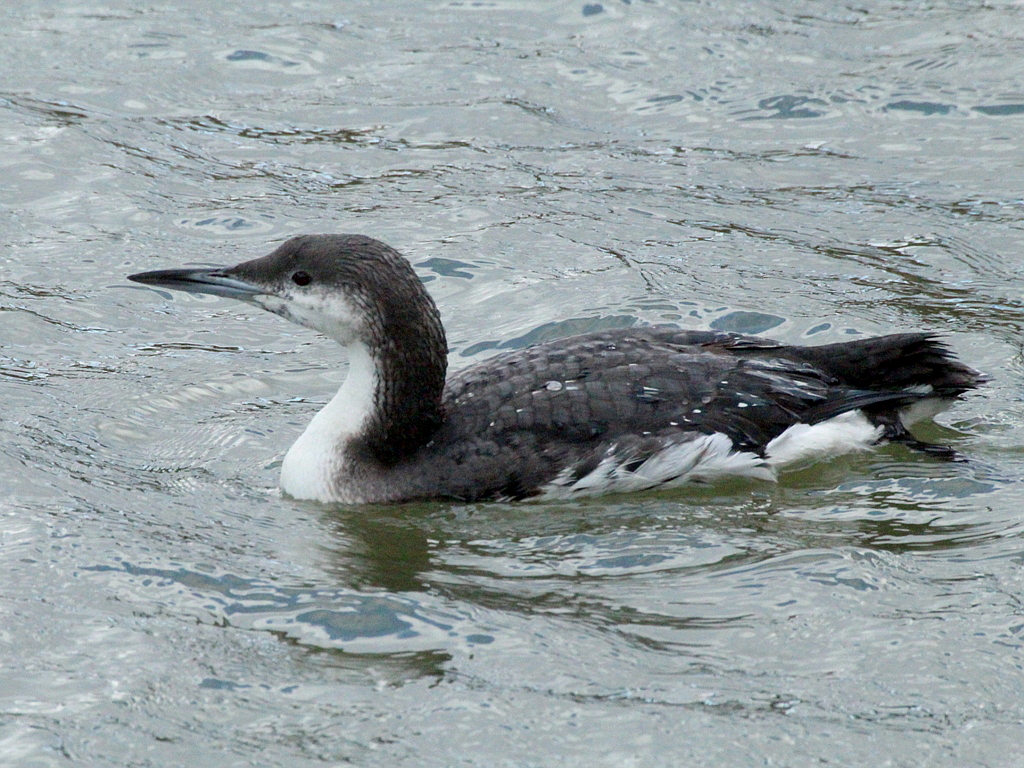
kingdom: Animalia
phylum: Chordata
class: Aves
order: Gaviiformes
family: Gaviidae
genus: Gavia
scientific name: Gavia arctica
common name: Black-throated loon
